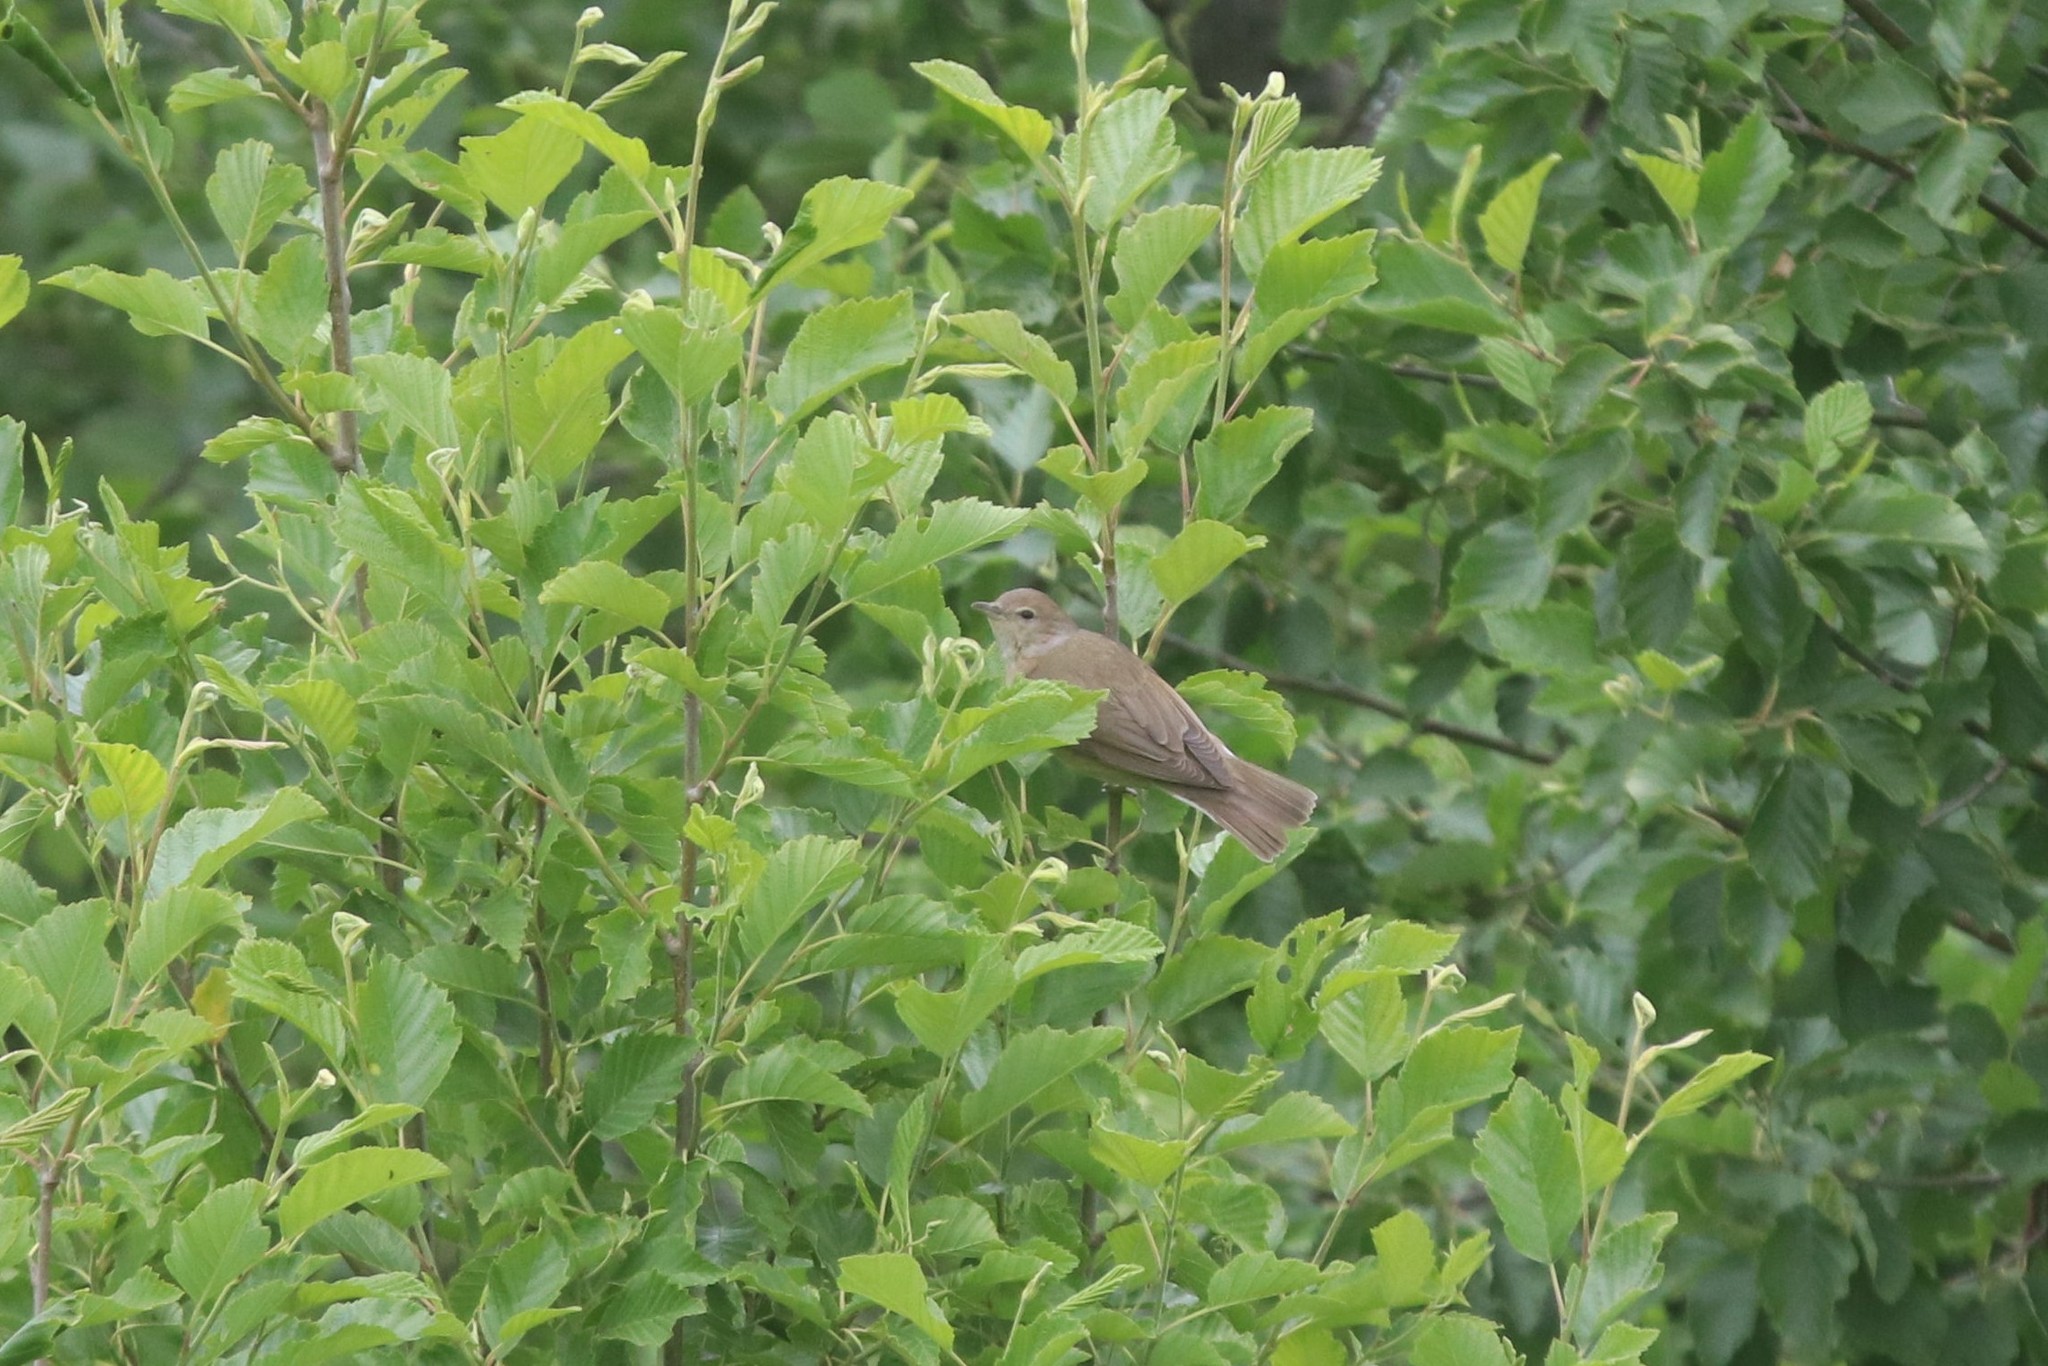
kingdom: Animalia
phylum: Chordata
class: Aves
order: Passeriformes
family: Sylviidae
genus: Sylvia
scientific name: Sylvia borin
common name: Garden warbler
